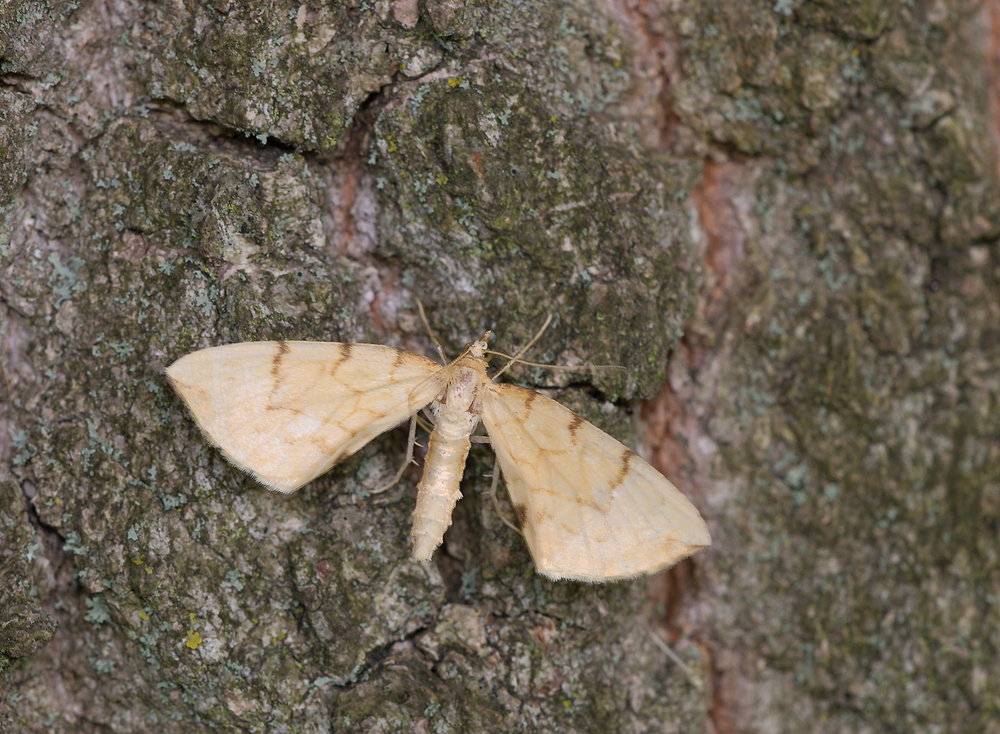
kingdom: Animalia
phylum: Arthropoda
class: Insecta
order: Lepidoptera
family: Geometridae
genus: Eulithis
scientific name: Eulithis pyraliata
